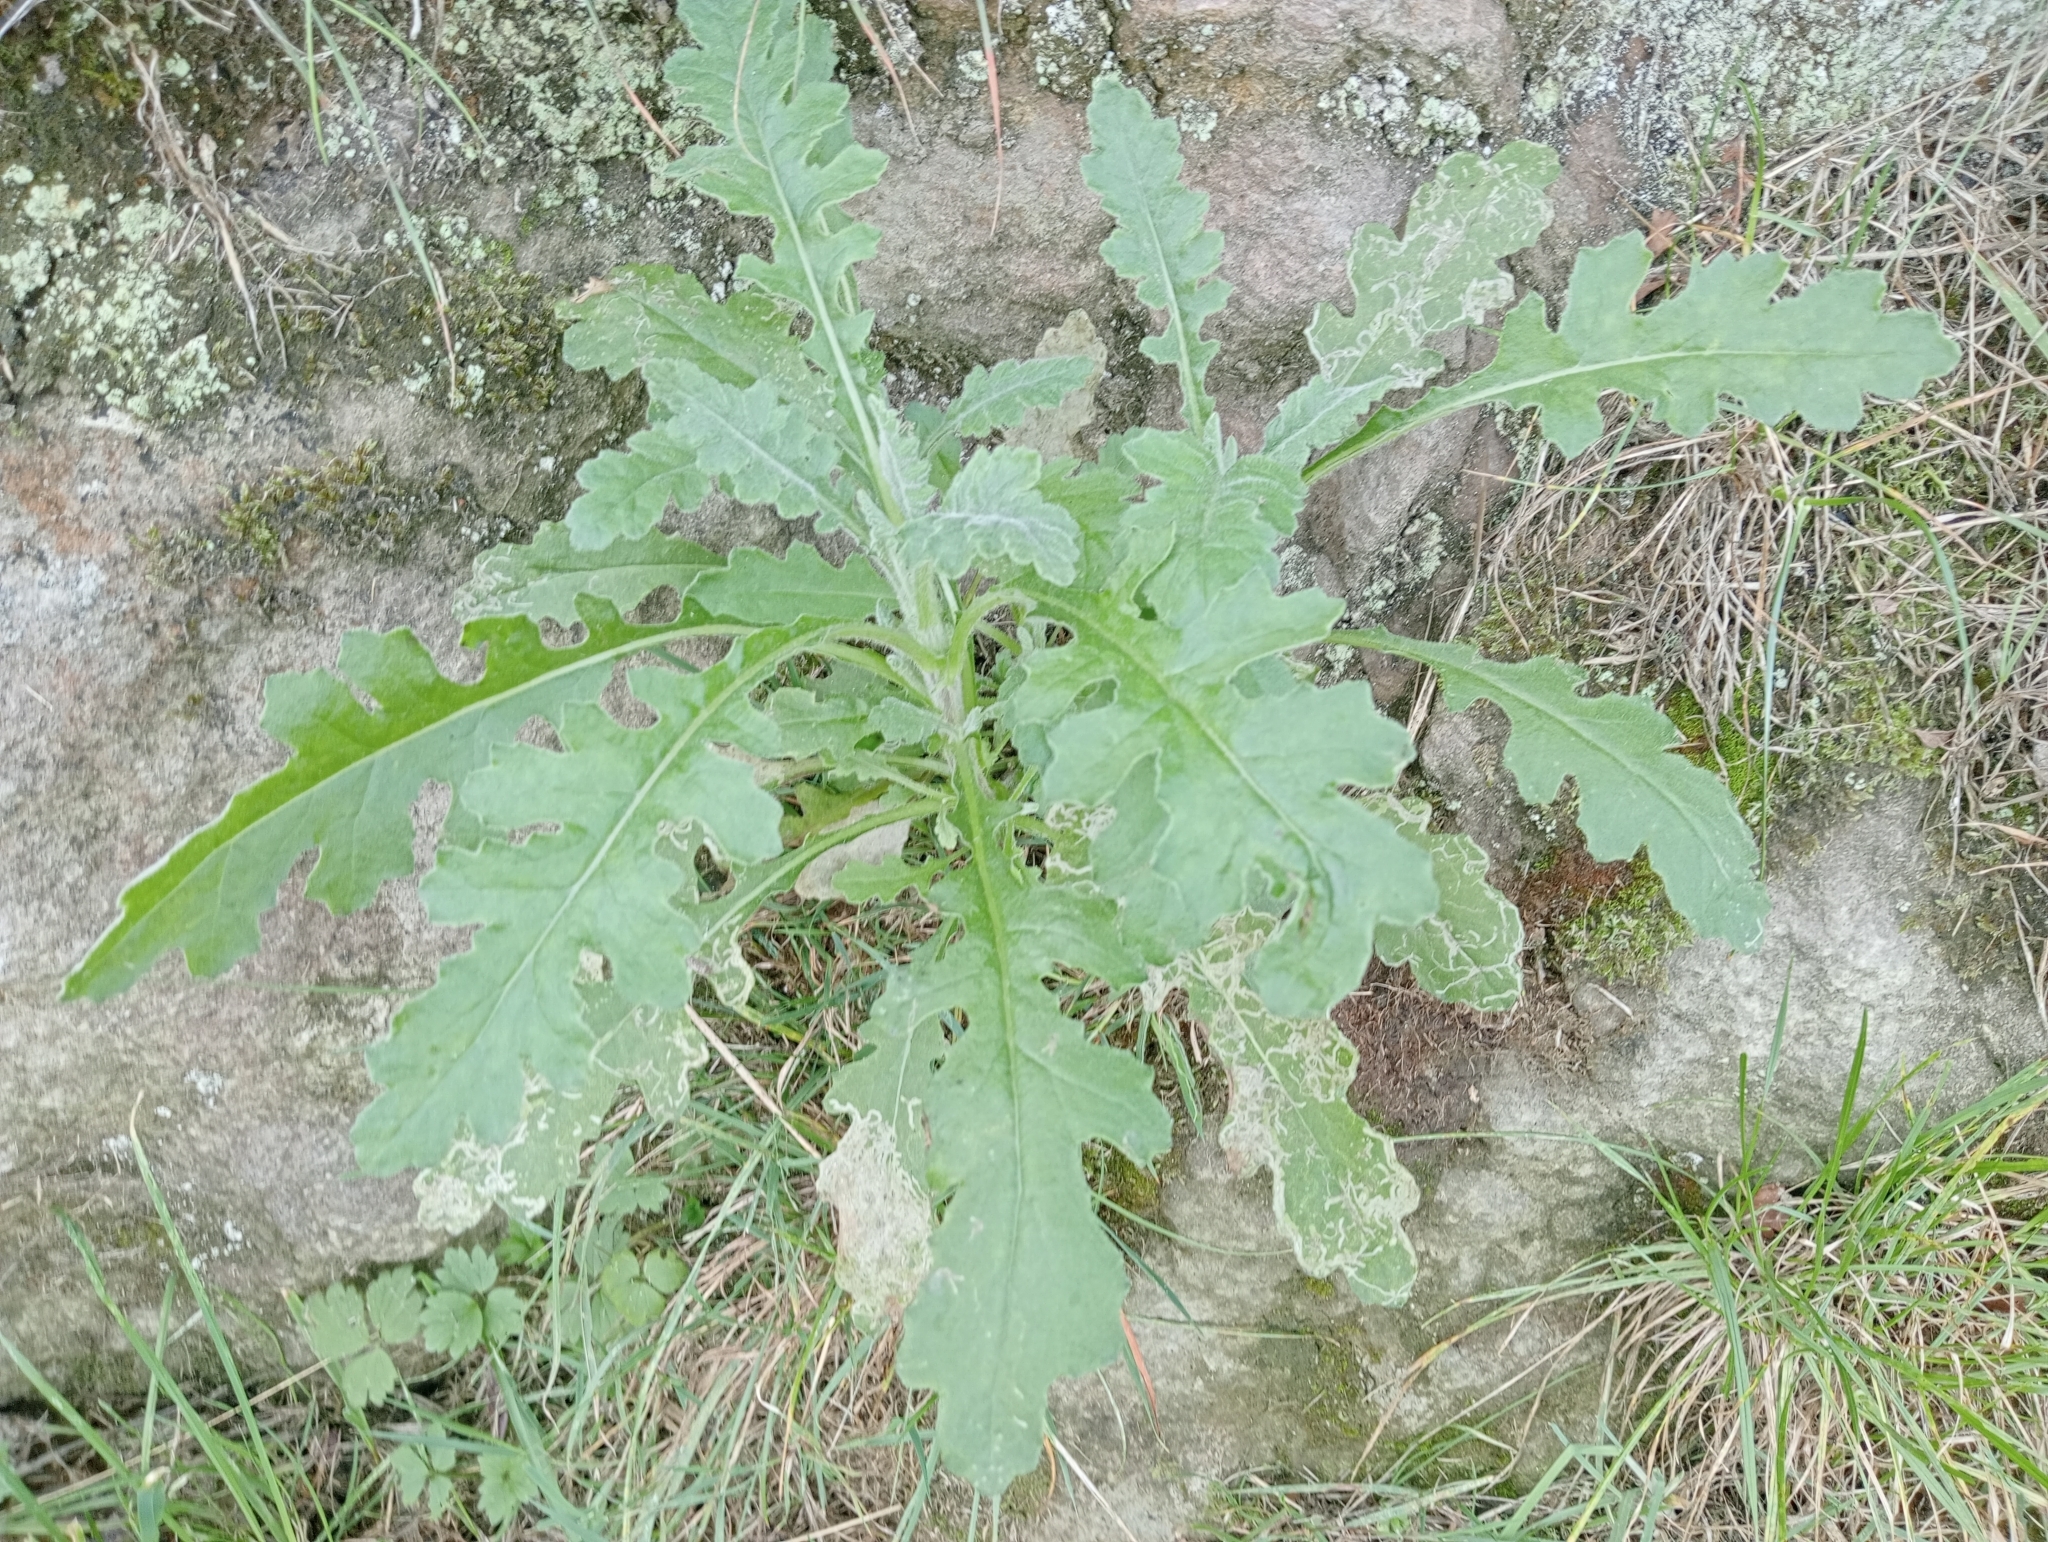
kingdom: Plantae
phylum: Tracheophyta
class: Magnoliopsida
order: Asterales
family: Asteraceae
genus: Senecio
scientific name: Senecio glomeratus
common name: Cutleaf burnweed
